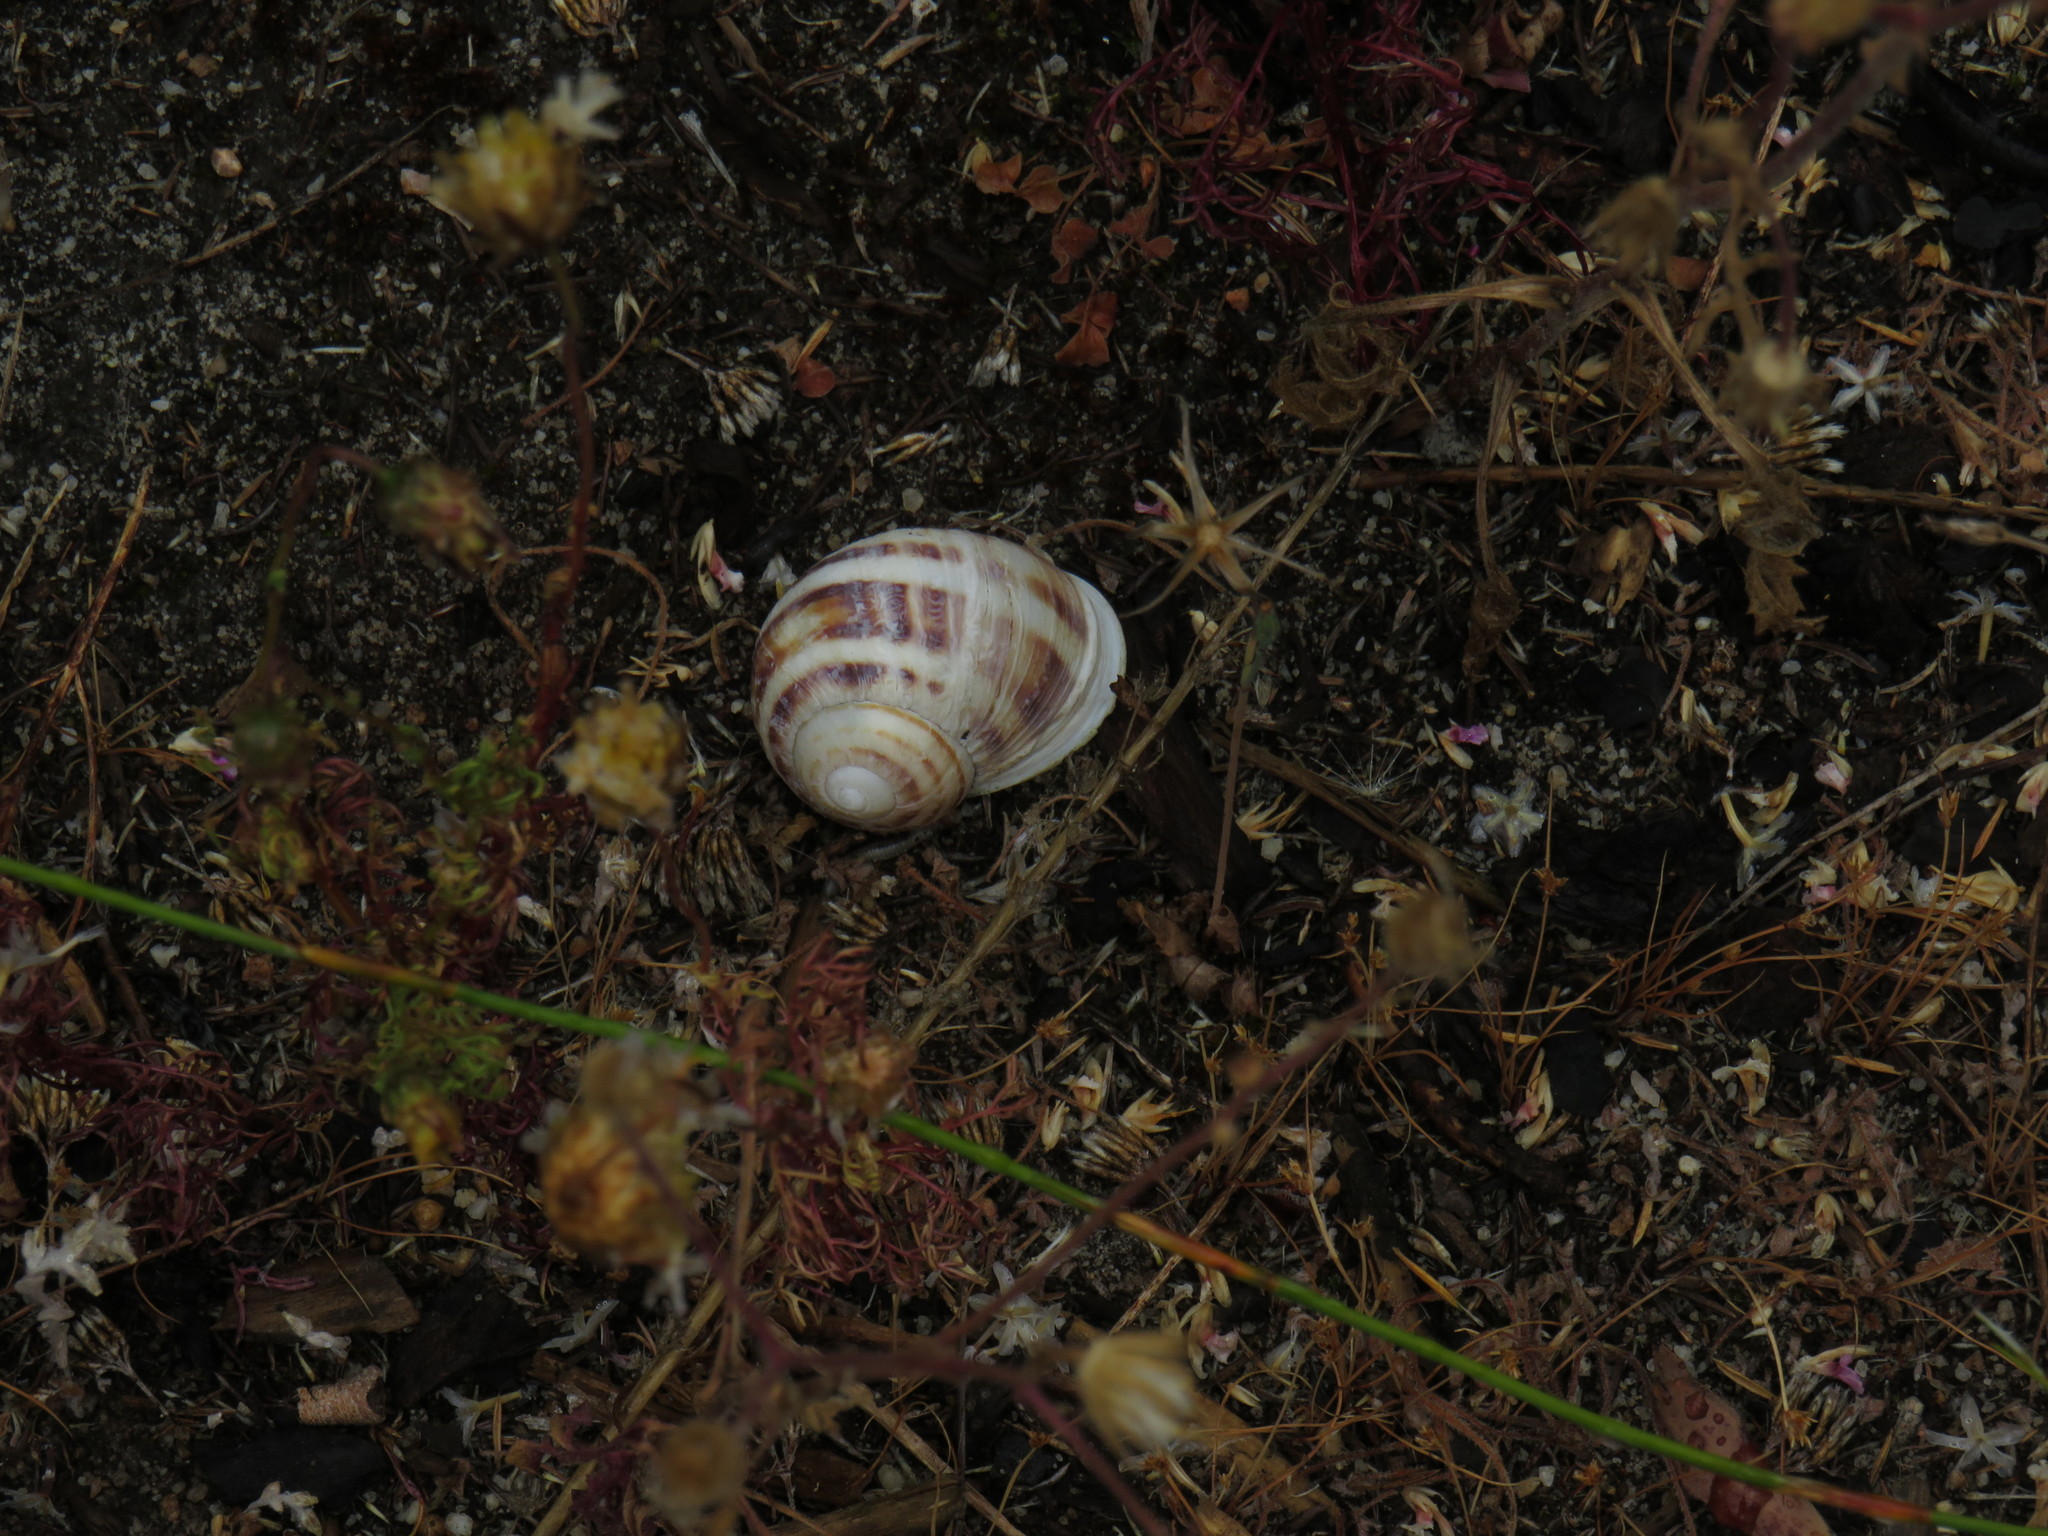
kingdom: Animalia
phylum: Mollusca
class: Gastropoda
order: Stylommatophora
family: Helicidae
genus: Cornu
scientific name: Cornu aspersum
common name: Brown garden snail
